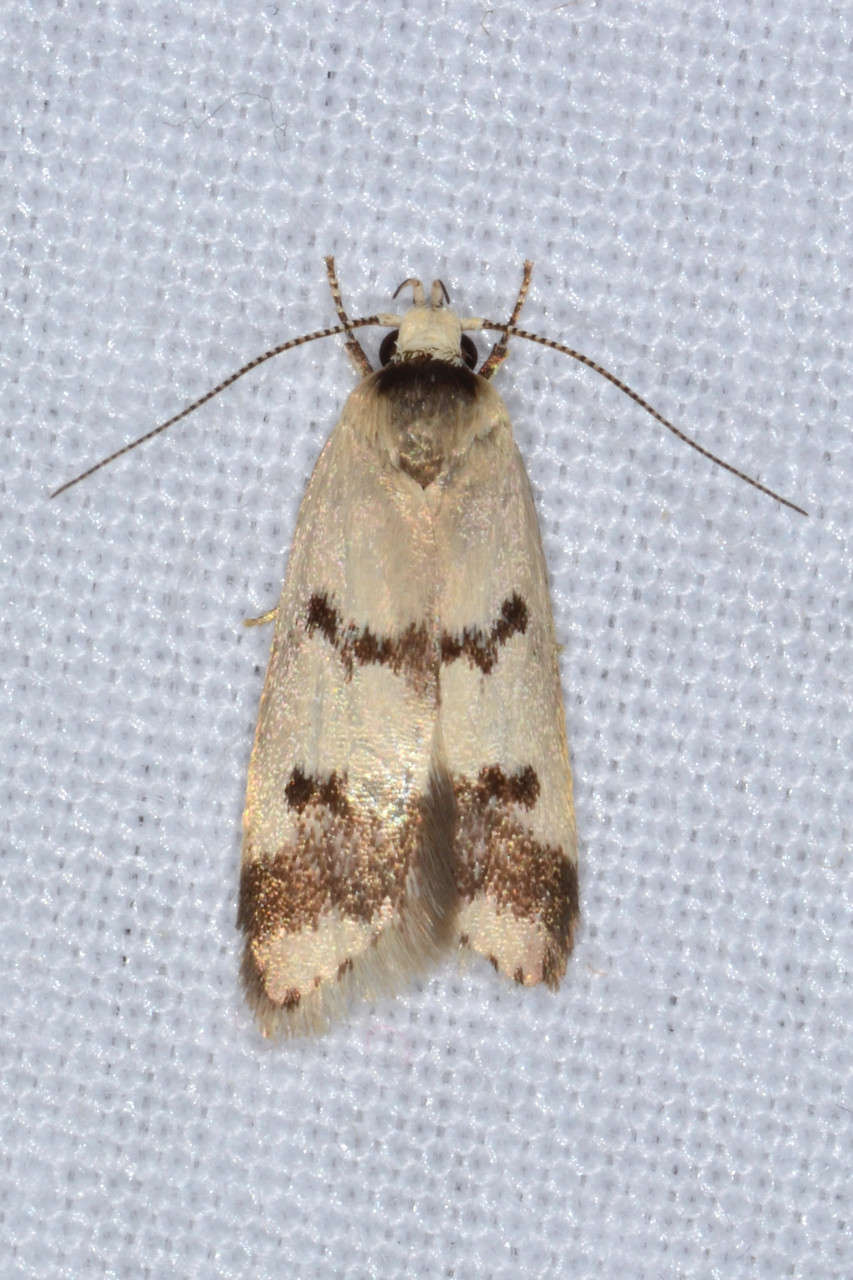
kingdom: Animalia
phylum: Arthropoda
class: Insecta
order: Lepidoptera
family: Oecophoridae
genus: Compsotropha
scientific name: Compsotropha strophiella
